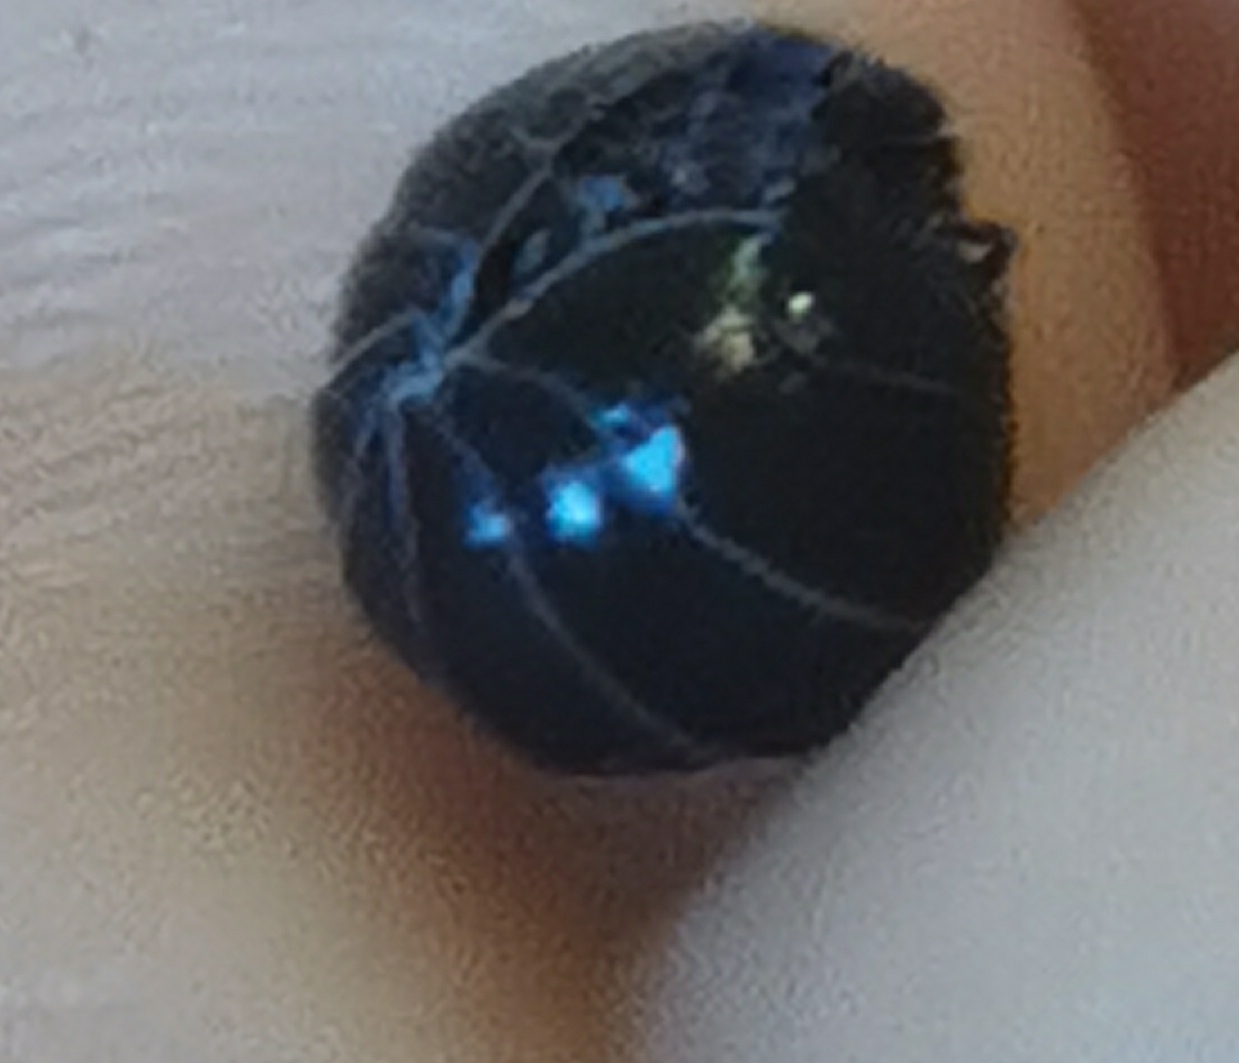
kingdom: Animalia
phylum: Arthropoda
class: Malacostraca
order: Isopoda
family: Armadillidiidae
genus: Armadillidium
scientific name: Armadillidium vulgare
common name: Common pill woodlouse
